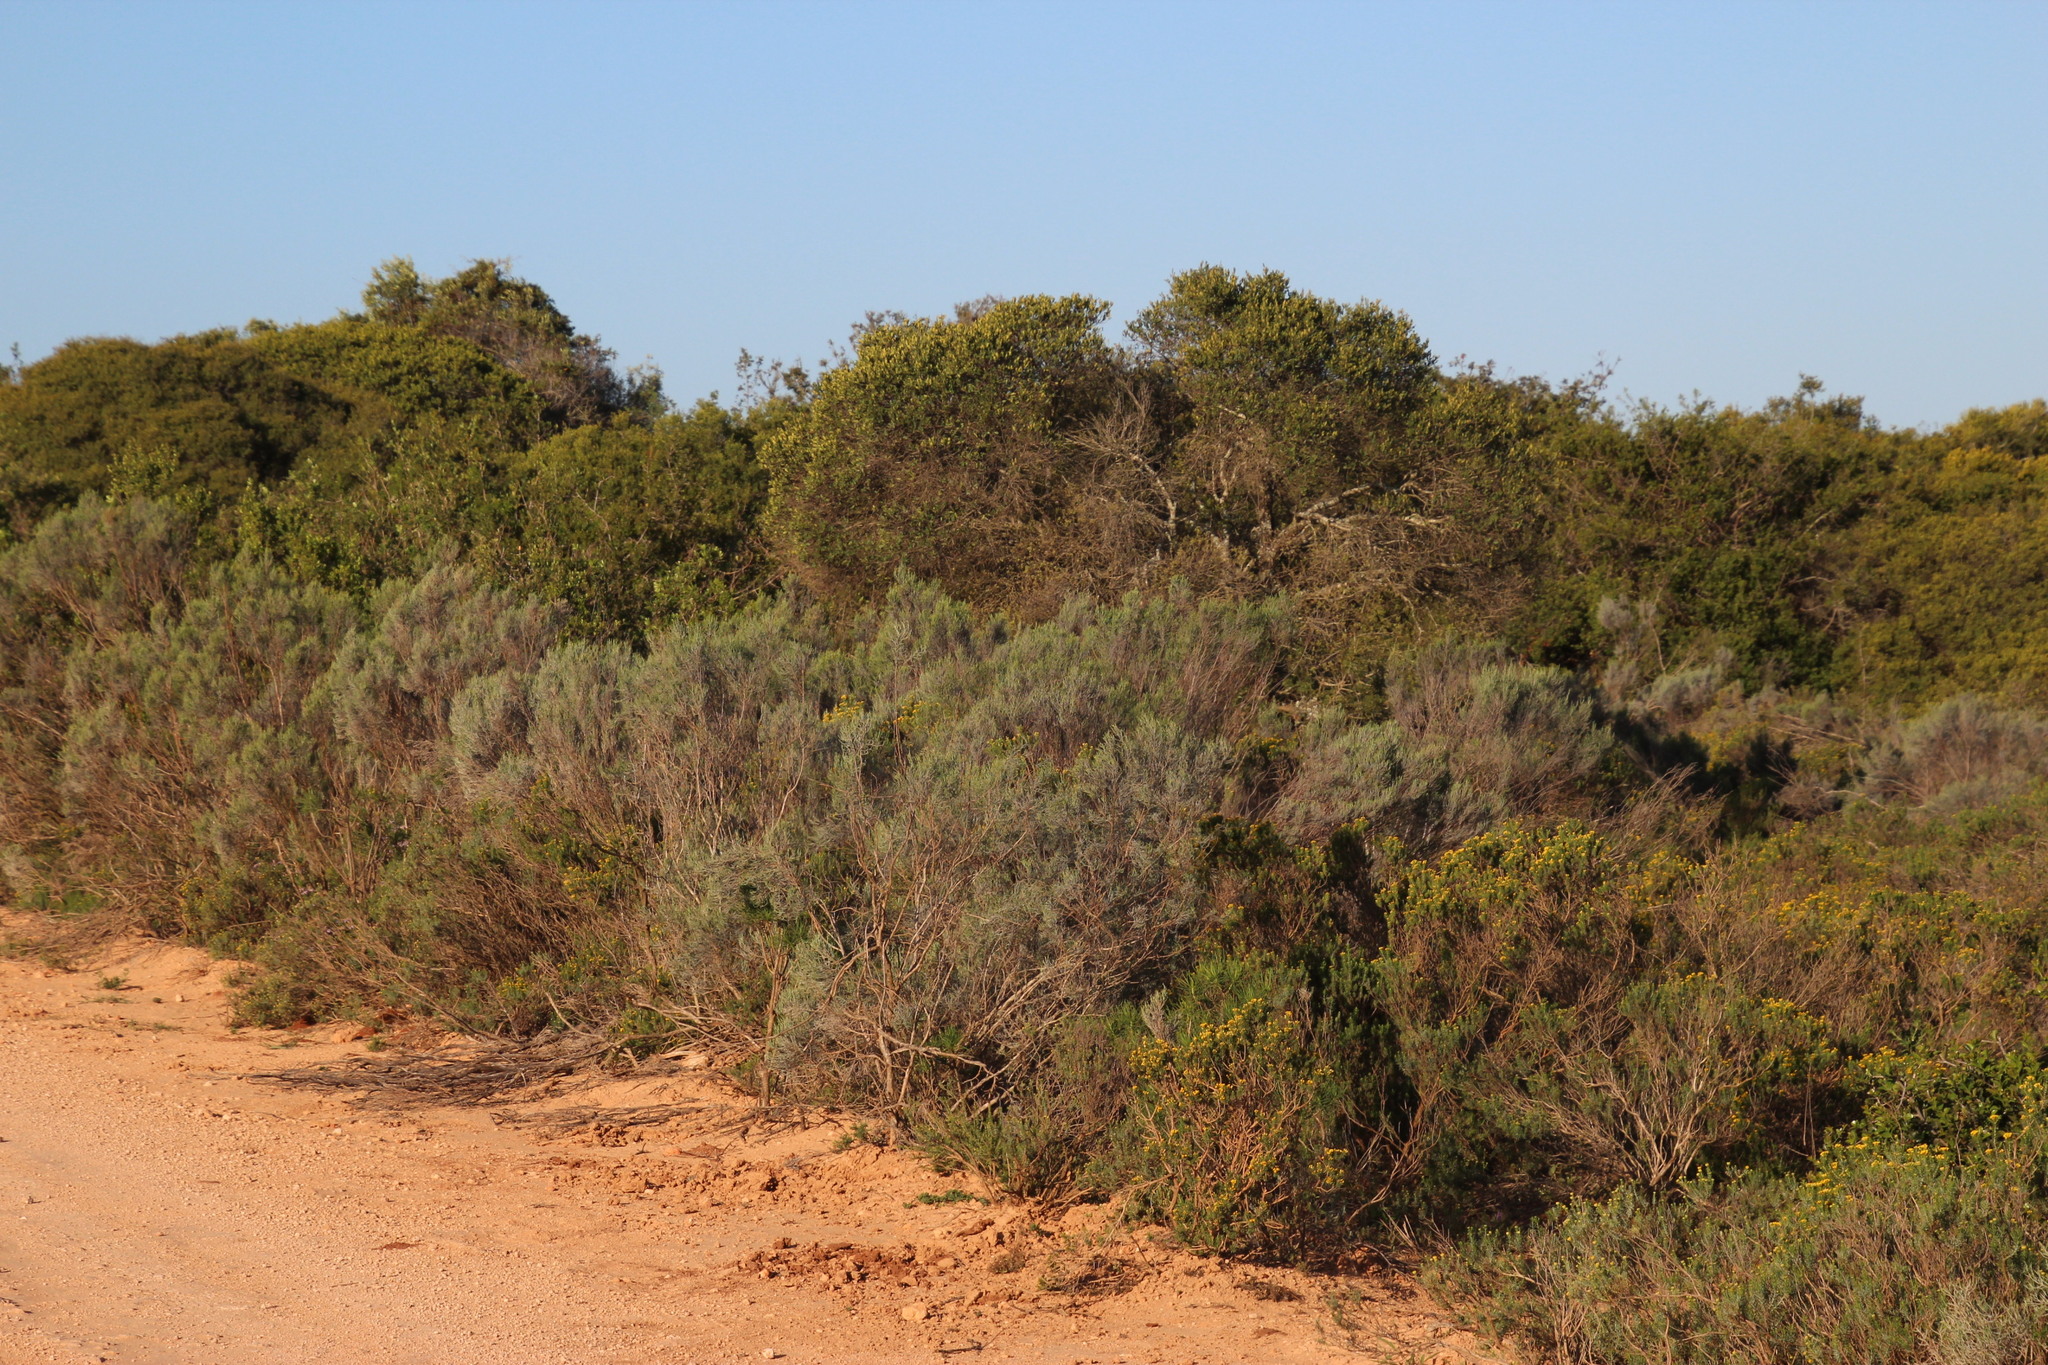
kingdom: Plantae
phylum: Tracheophyta
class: Magnoliopsida
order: Asterales
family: Asteraceae
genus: Dicerothamnus
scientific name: Dicerothamnus rhinocerotis
